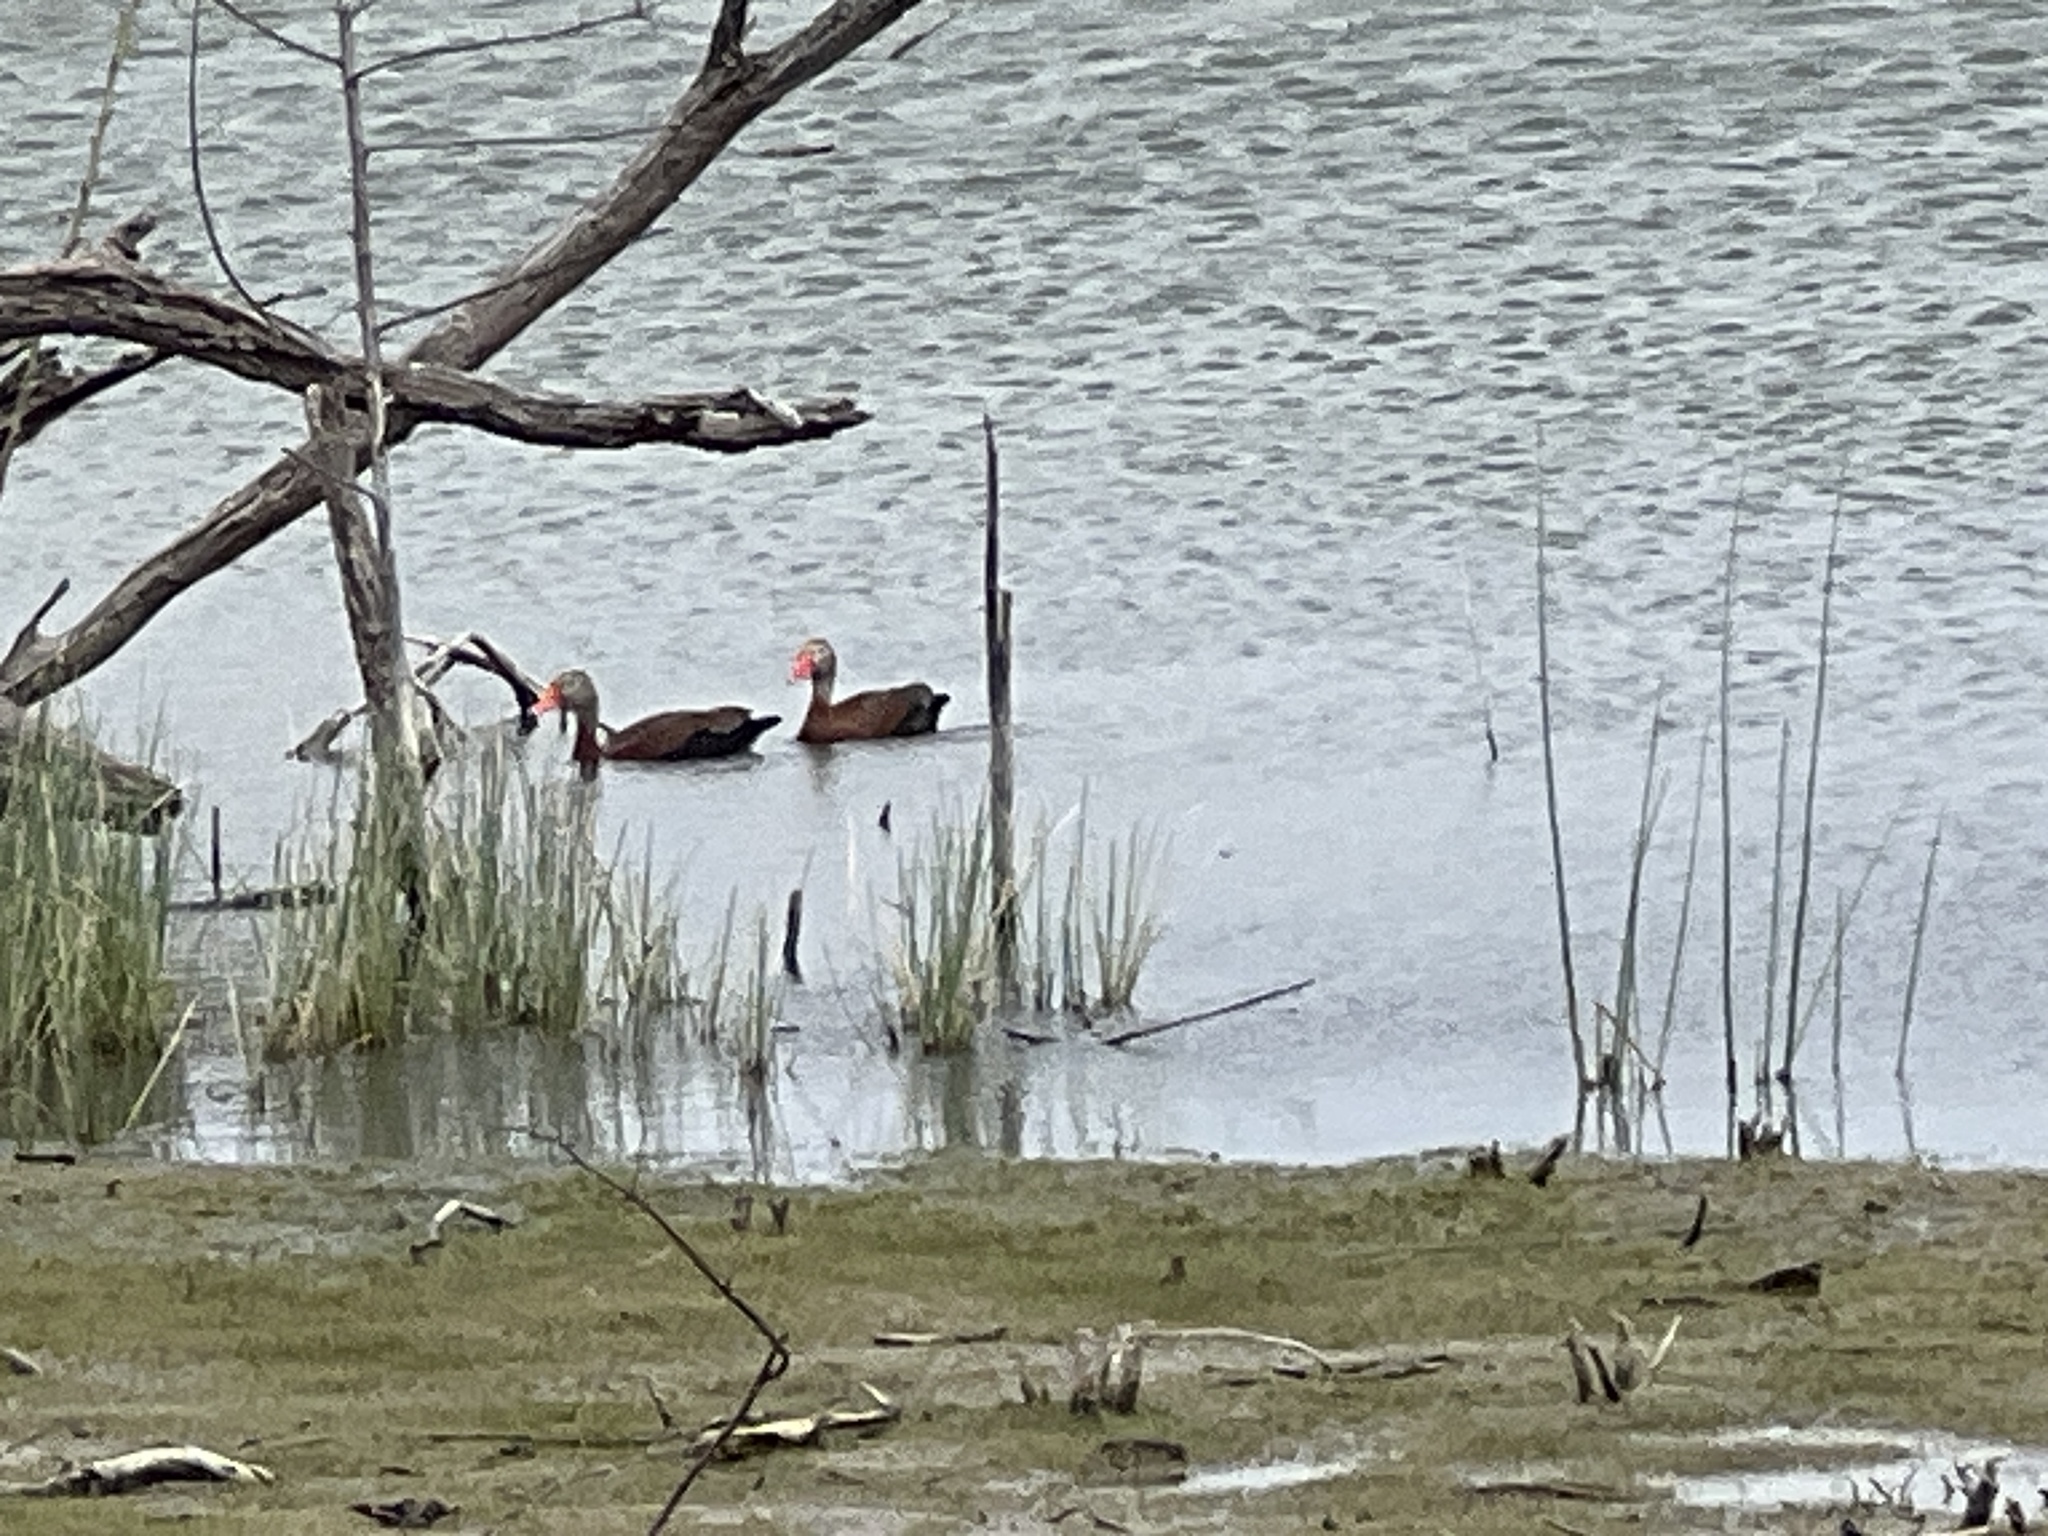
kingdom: Animalia
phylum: Chordata
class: Aves
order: Anseriformes
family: Anatidae
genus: Dendrocygna
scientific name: Dendrocygna autumnalis
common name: Black-bellied whistling duck
